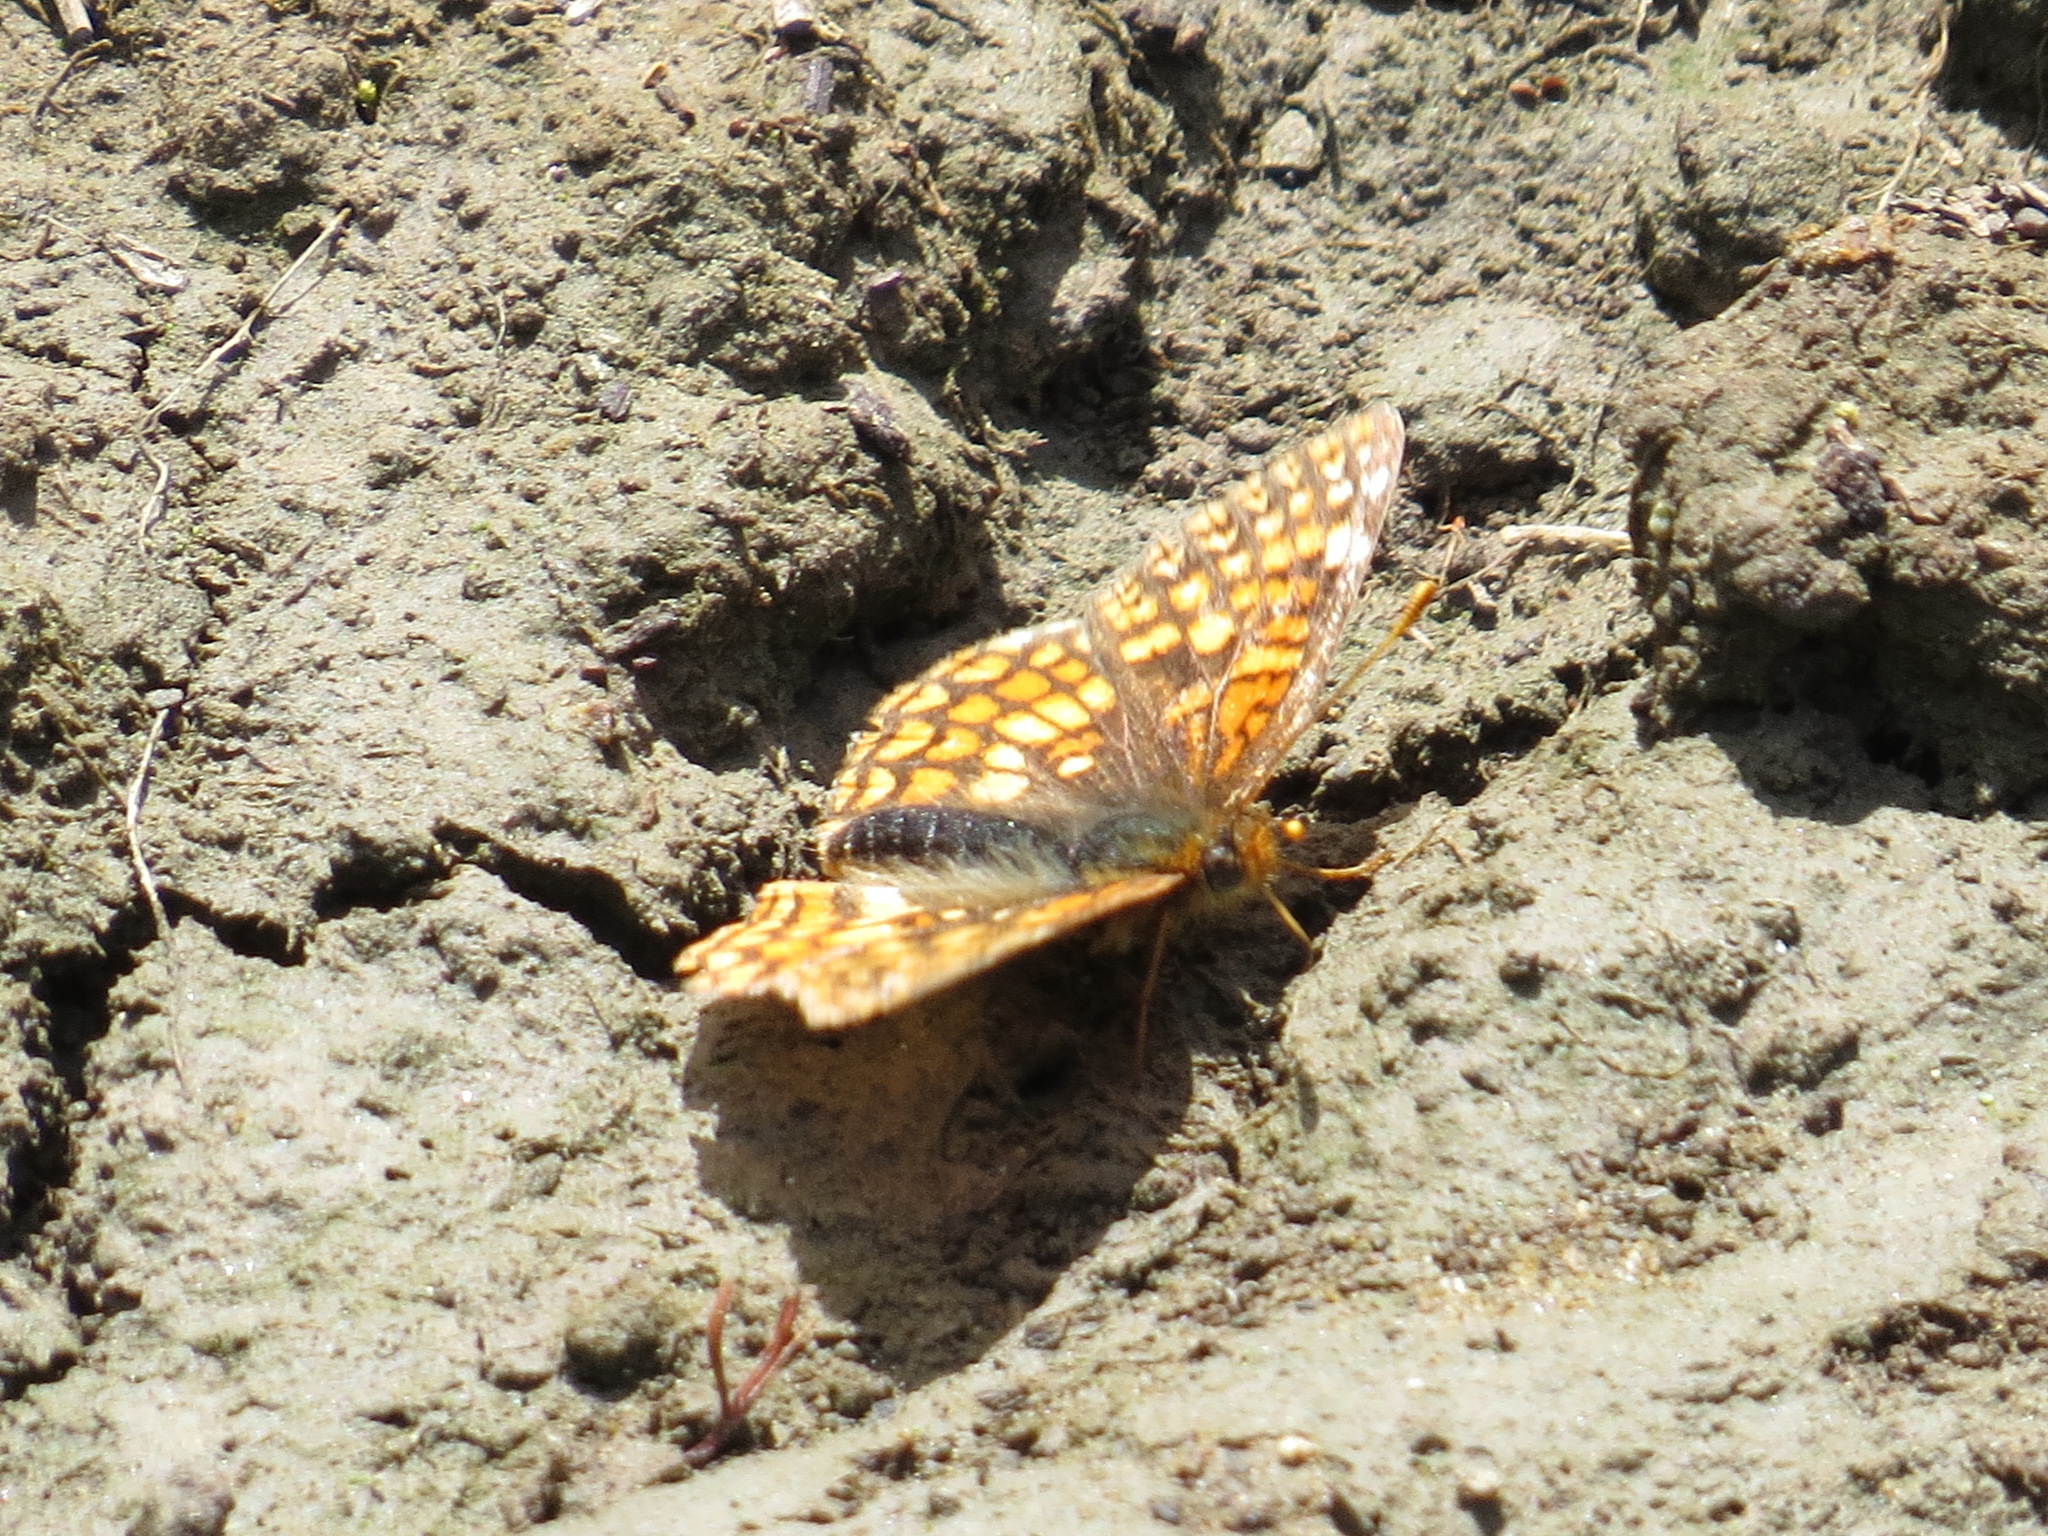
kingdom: Animalia
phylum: Arthropoda
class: Insecta
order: Lepidoptera
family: Nymphalidae
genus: Chlosyne
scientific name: Chlosyne palla
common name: Northern checkerspot
